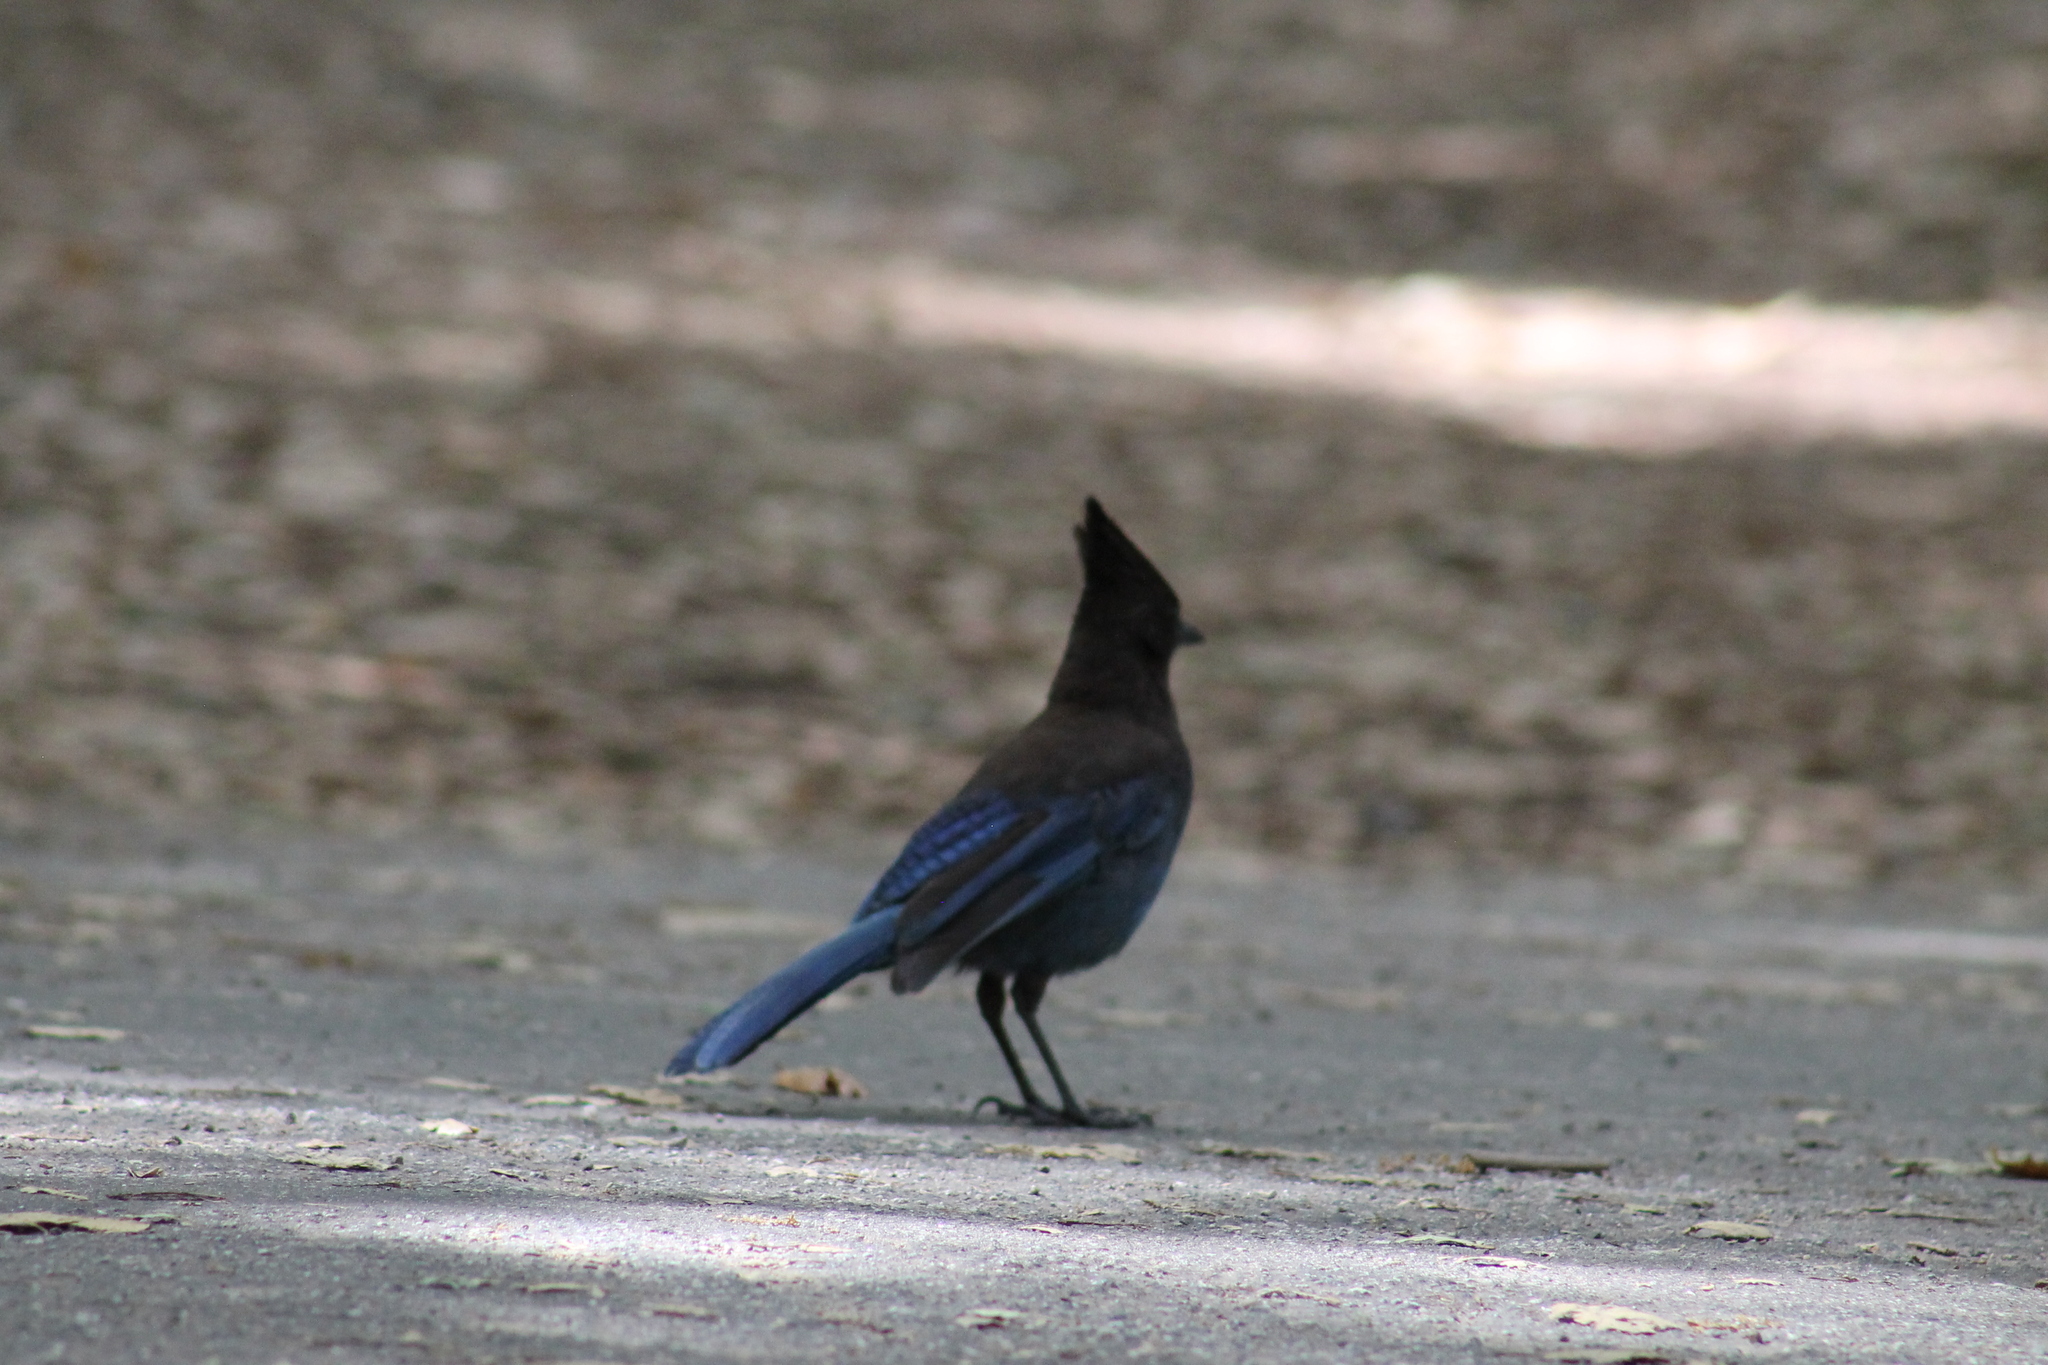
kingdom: Animalia
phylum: Chordata
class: Aves
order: Passeriformes
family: Corvidae
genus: Cyanocitta
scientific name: Cyanocitta stelleri
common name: Steller's jay
